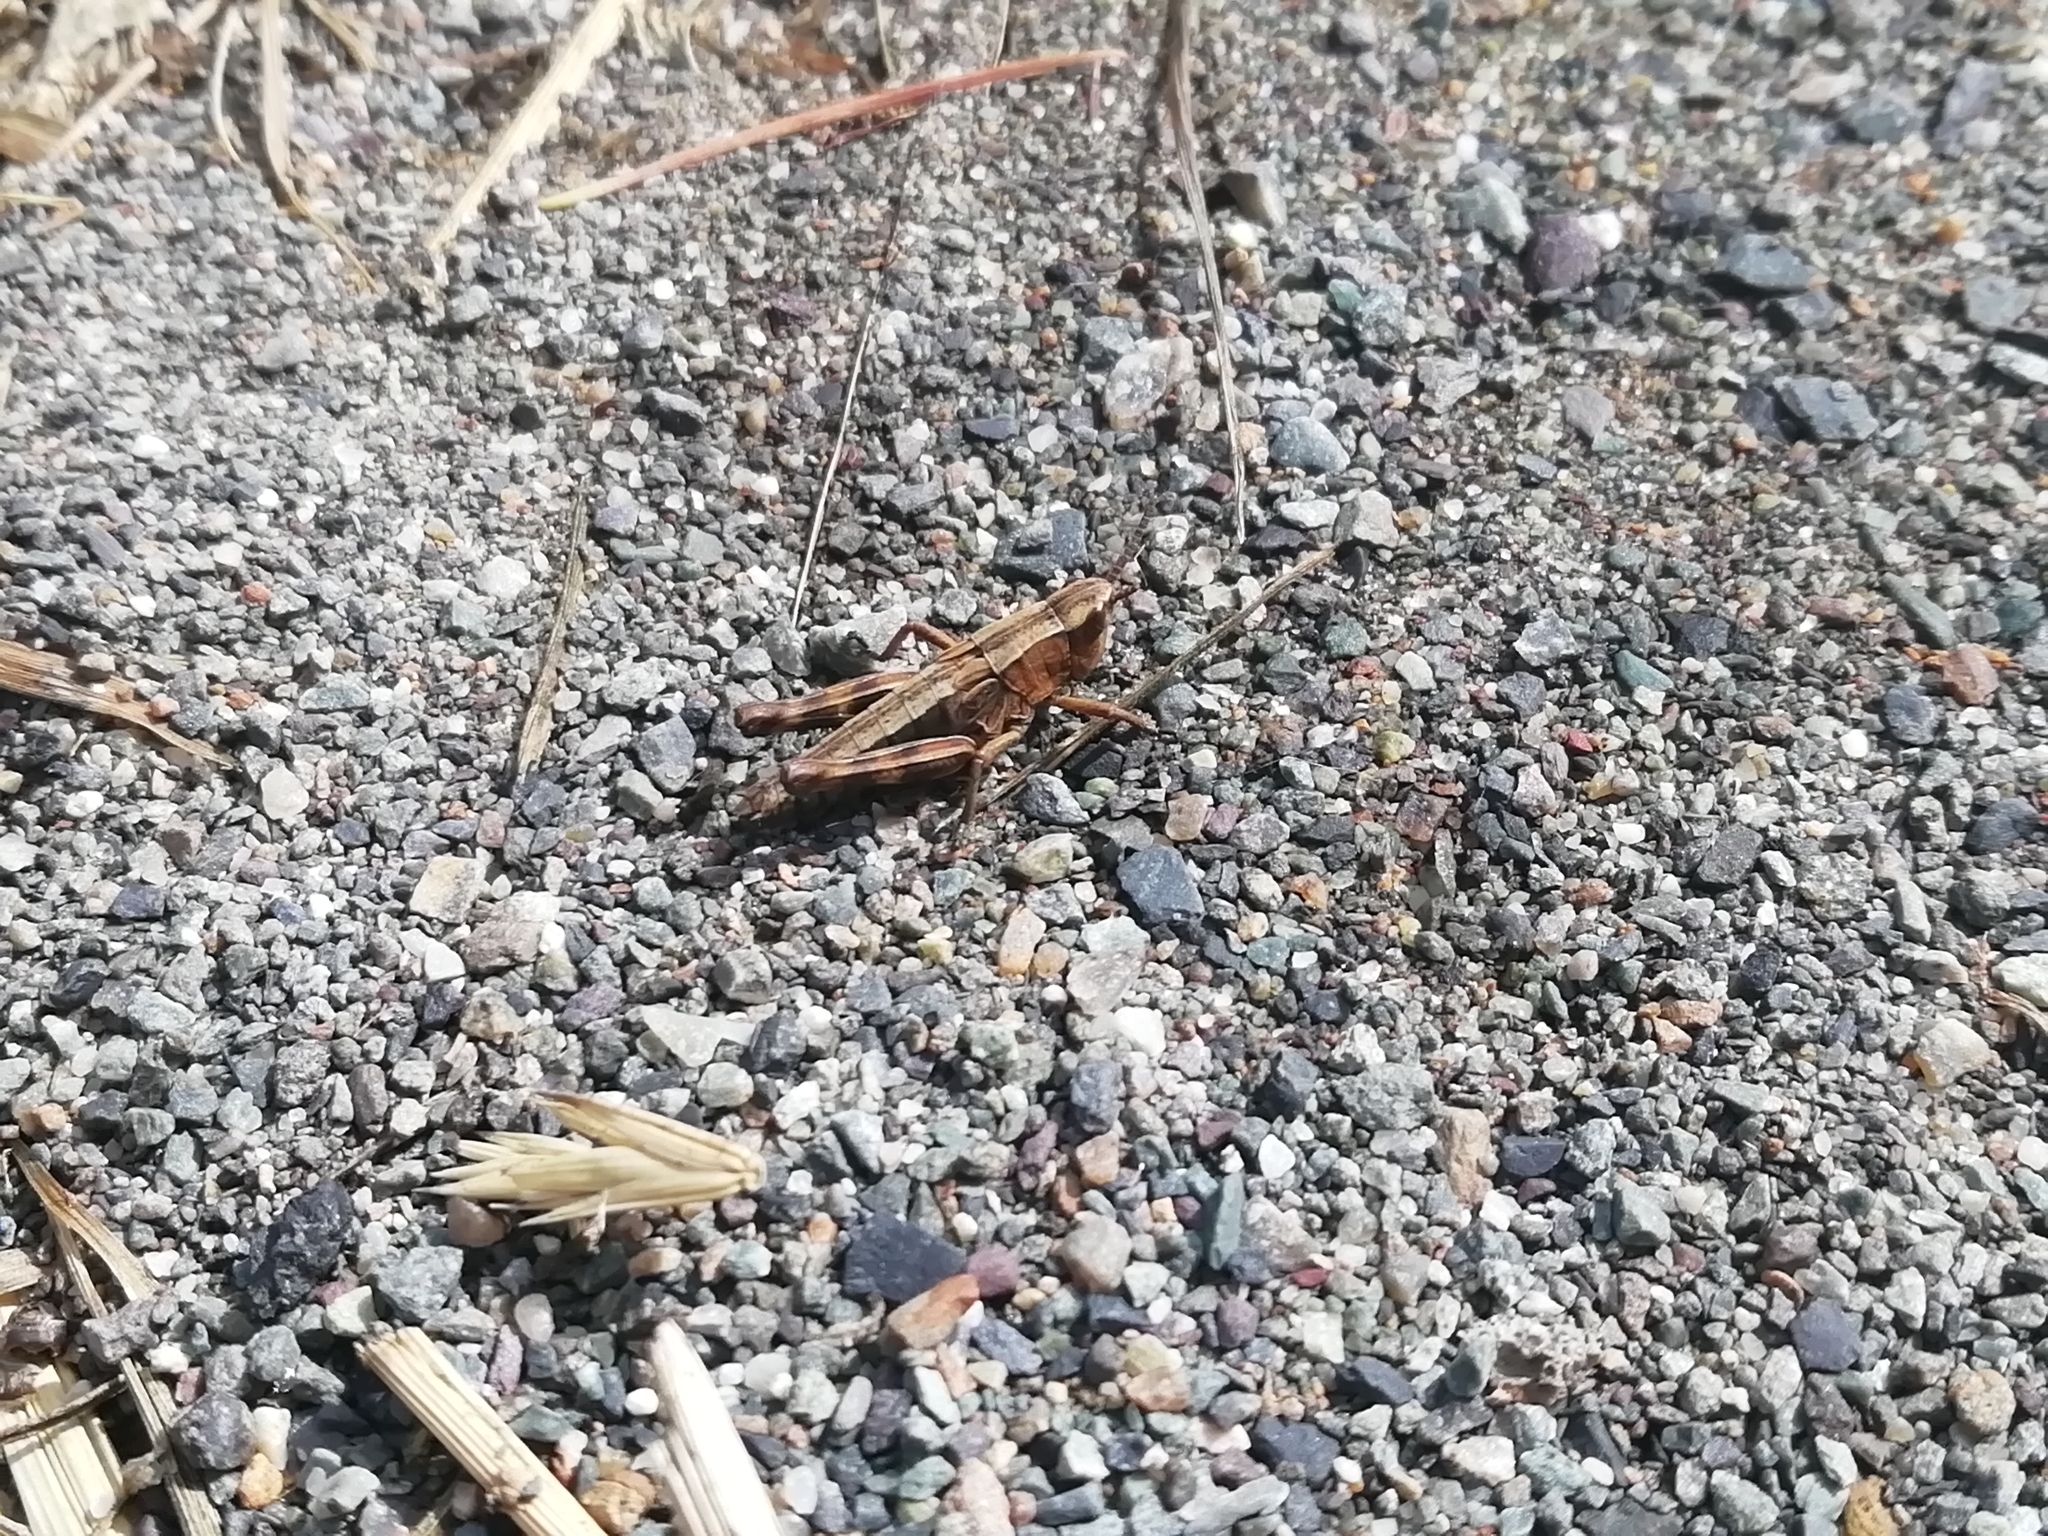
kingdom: Animalia
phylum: Arthropoda
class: Insecta
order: Orthoptera
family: Acrididae
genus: Podismopsis
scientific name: Podismopsis poppiusi
